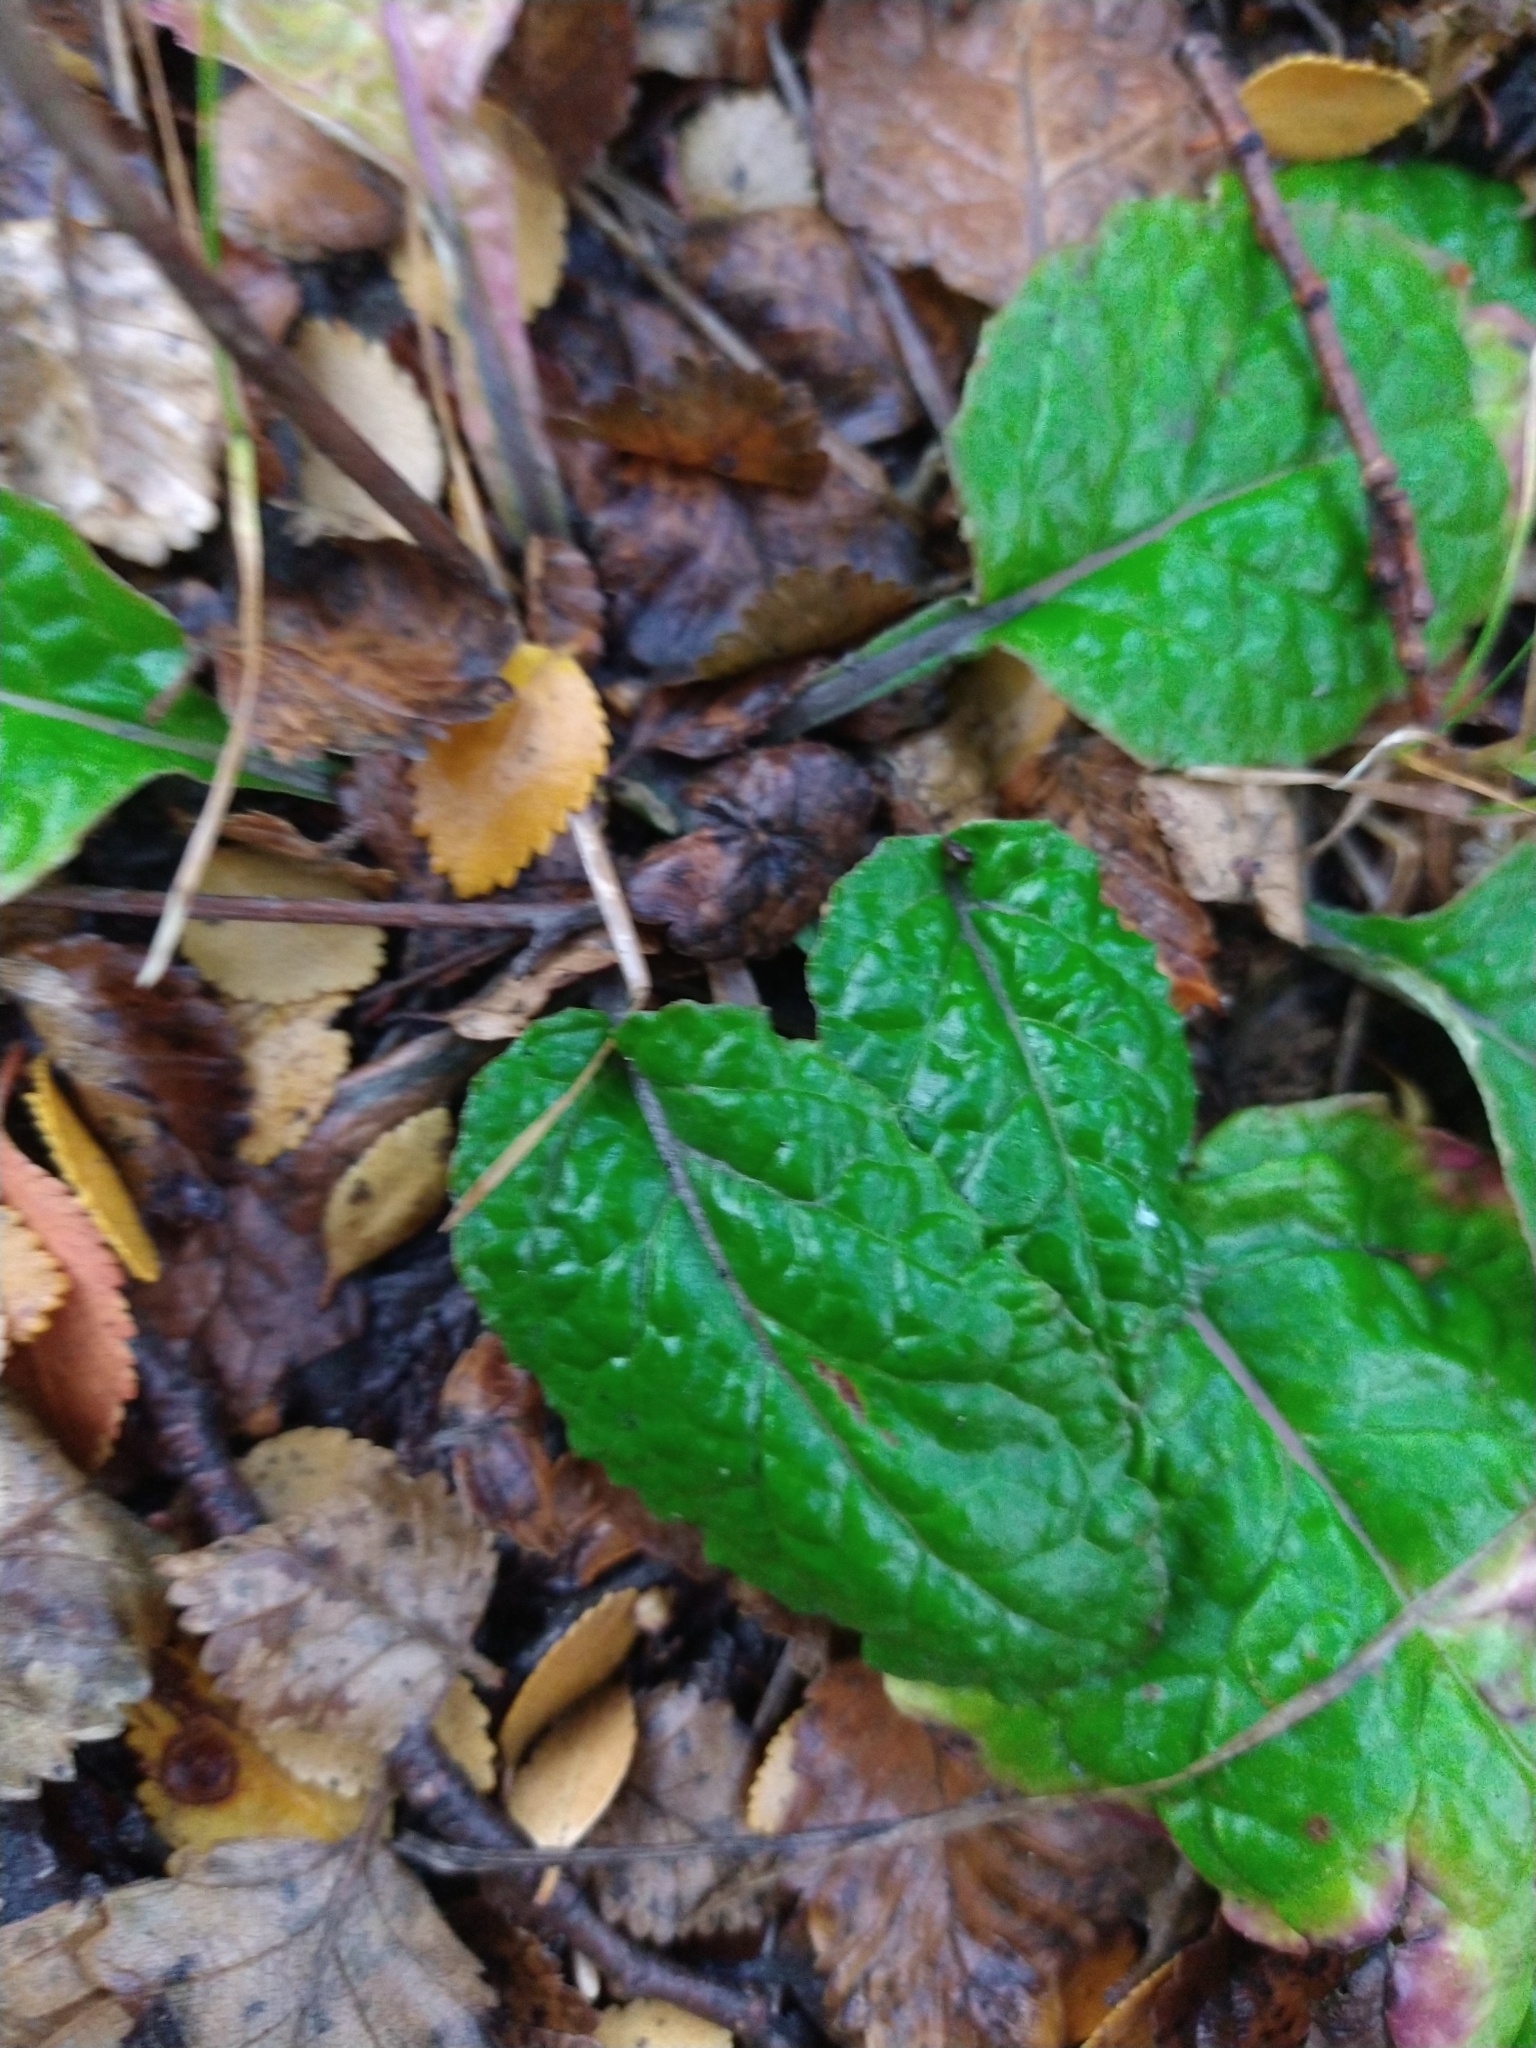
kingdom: Plantae
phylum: Tracheophyta
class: Magnoliopsida
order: Asterales
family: Asteraceae
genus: Adenocaulon
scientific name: Adenocaulon chilense
